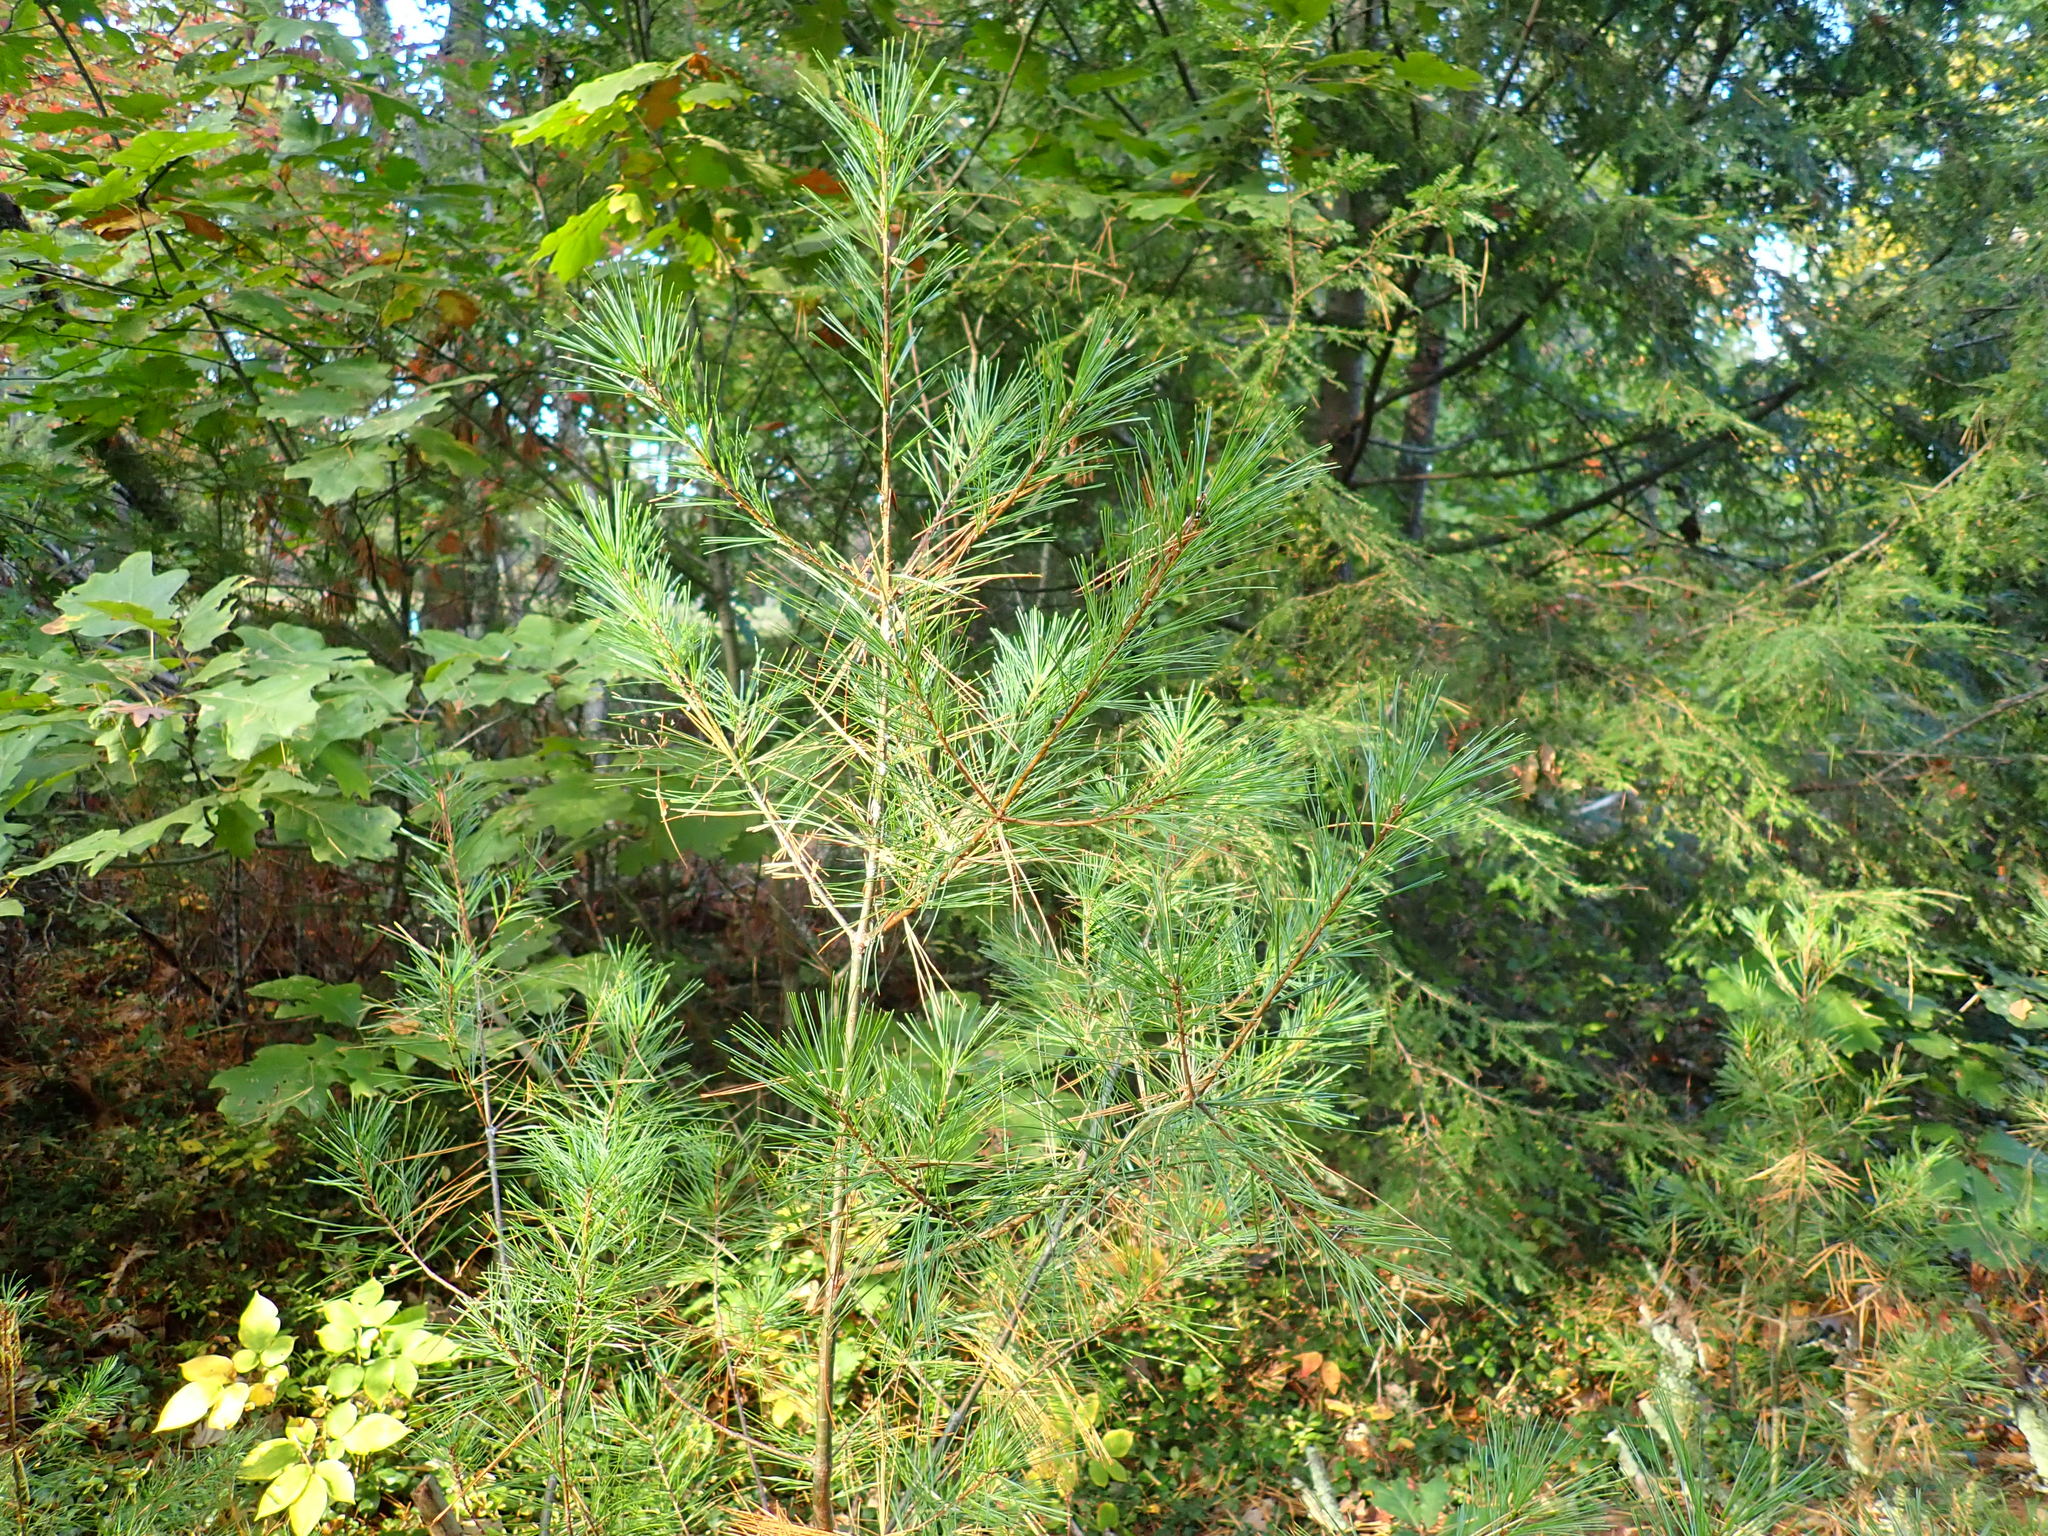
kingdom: Plantae
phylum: Tracheophyta
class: Pinopsida
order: Pinales
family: Pinaceae
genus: Pinus
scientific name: Pinus strobus
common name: Weymouth pine
